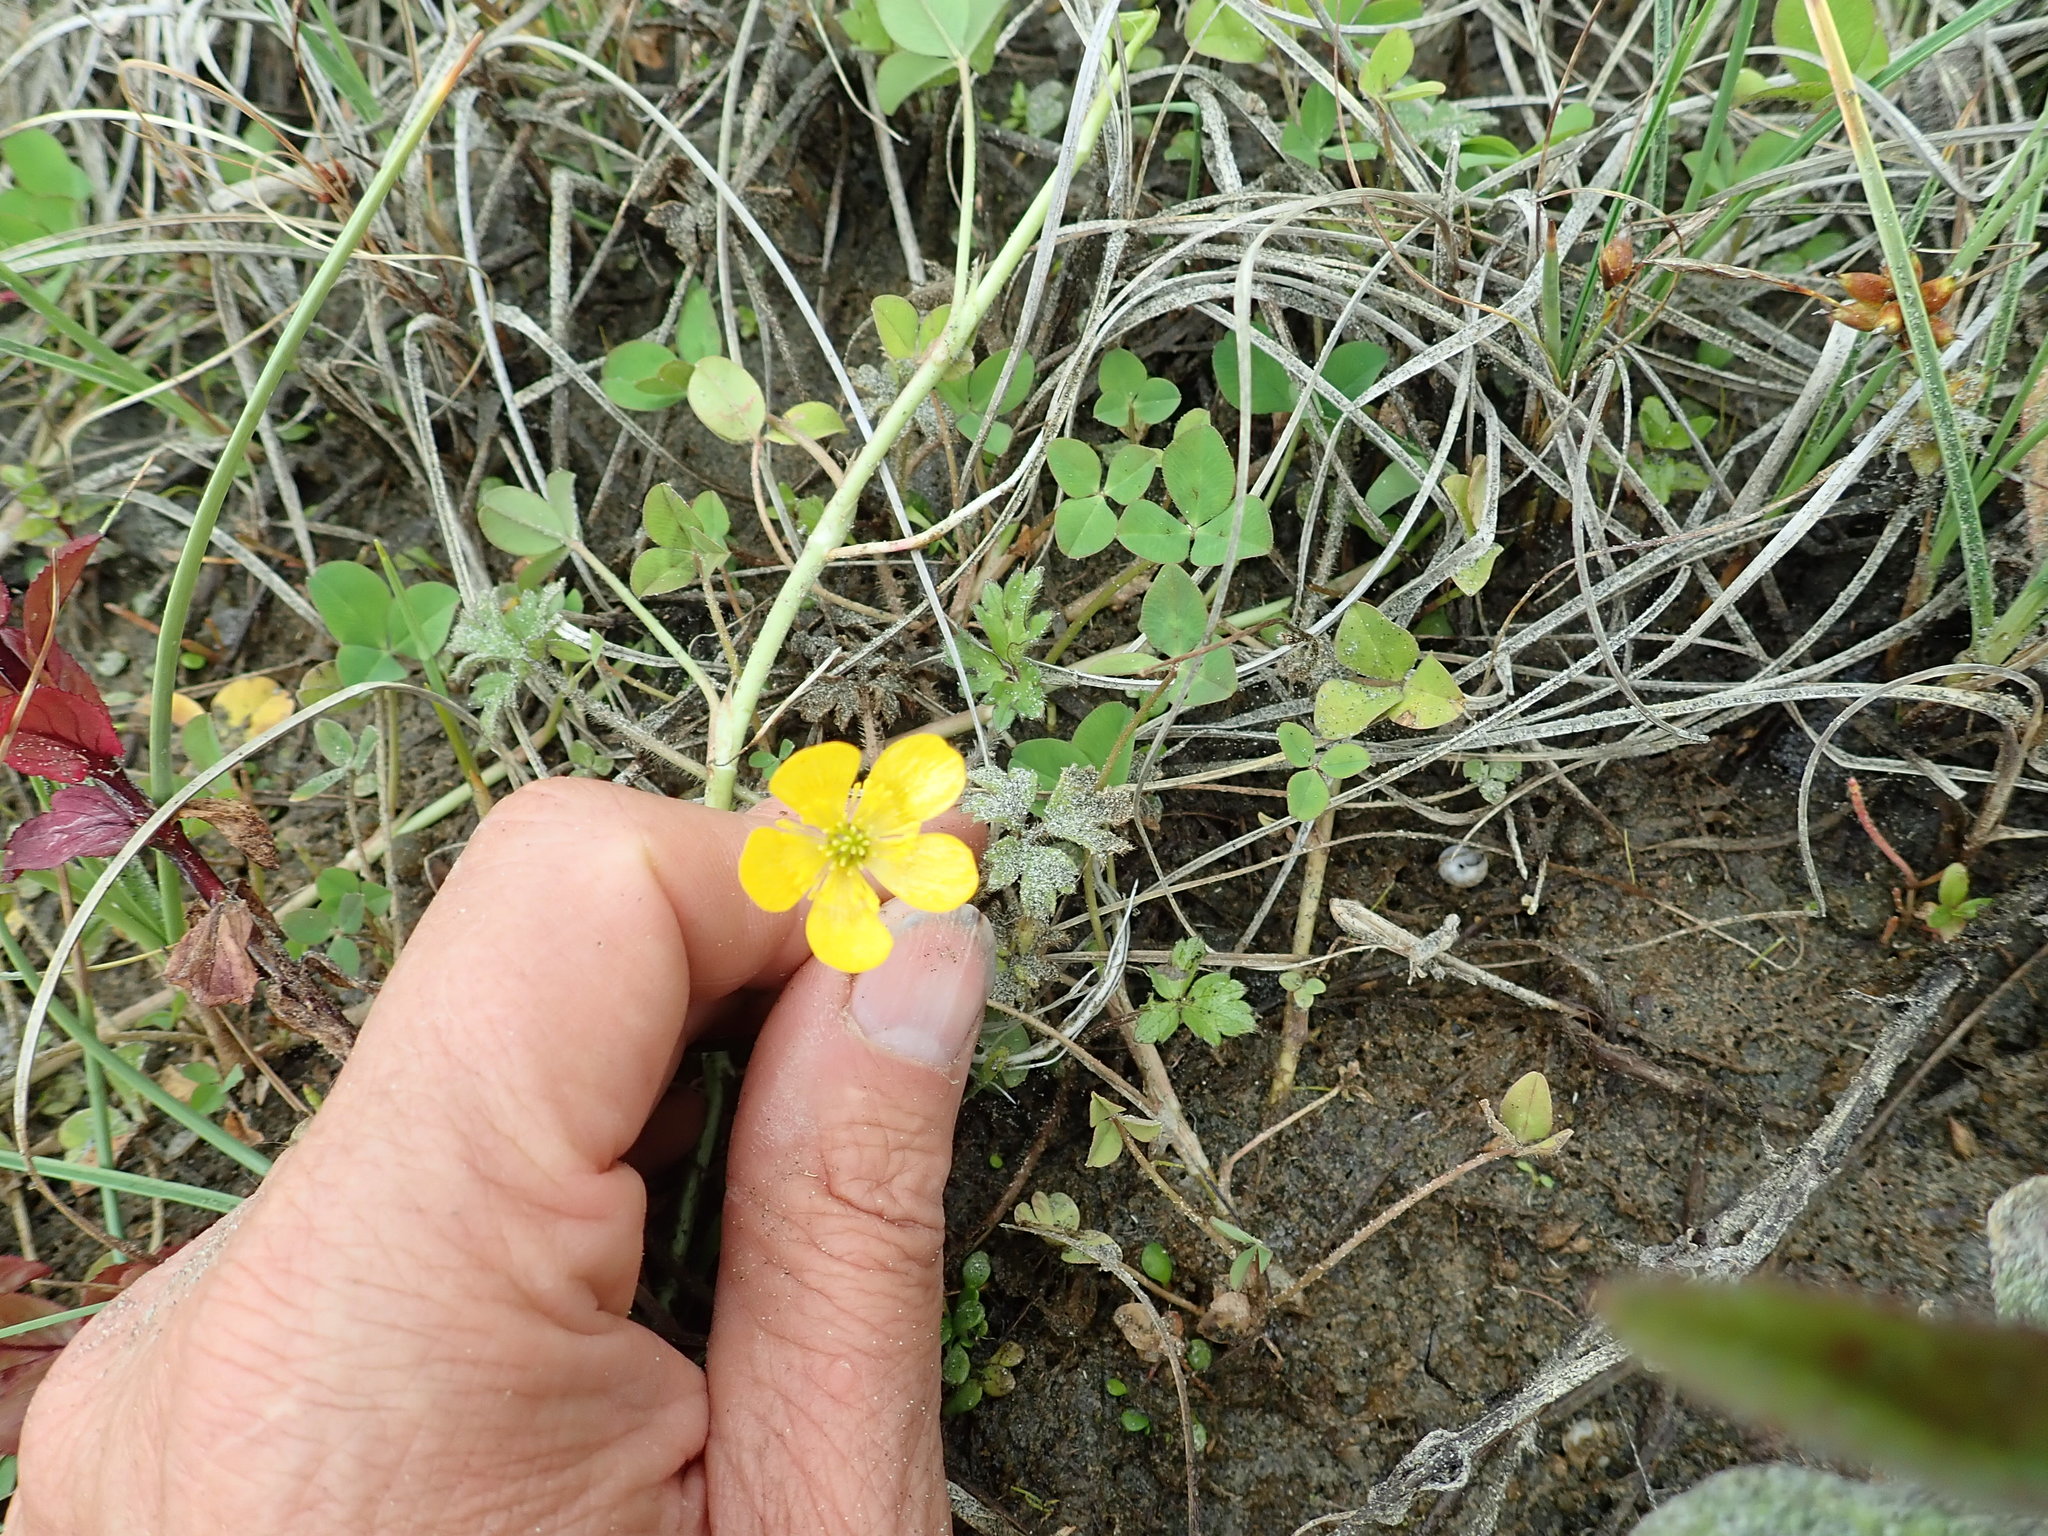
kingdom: Plantae
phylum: Tracheophyta
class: Magnoliopsida
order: Ranunculales
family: Ranunculaceae
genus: Ranunculus
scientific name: Ranunculus repens
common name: Creeping buttercup
